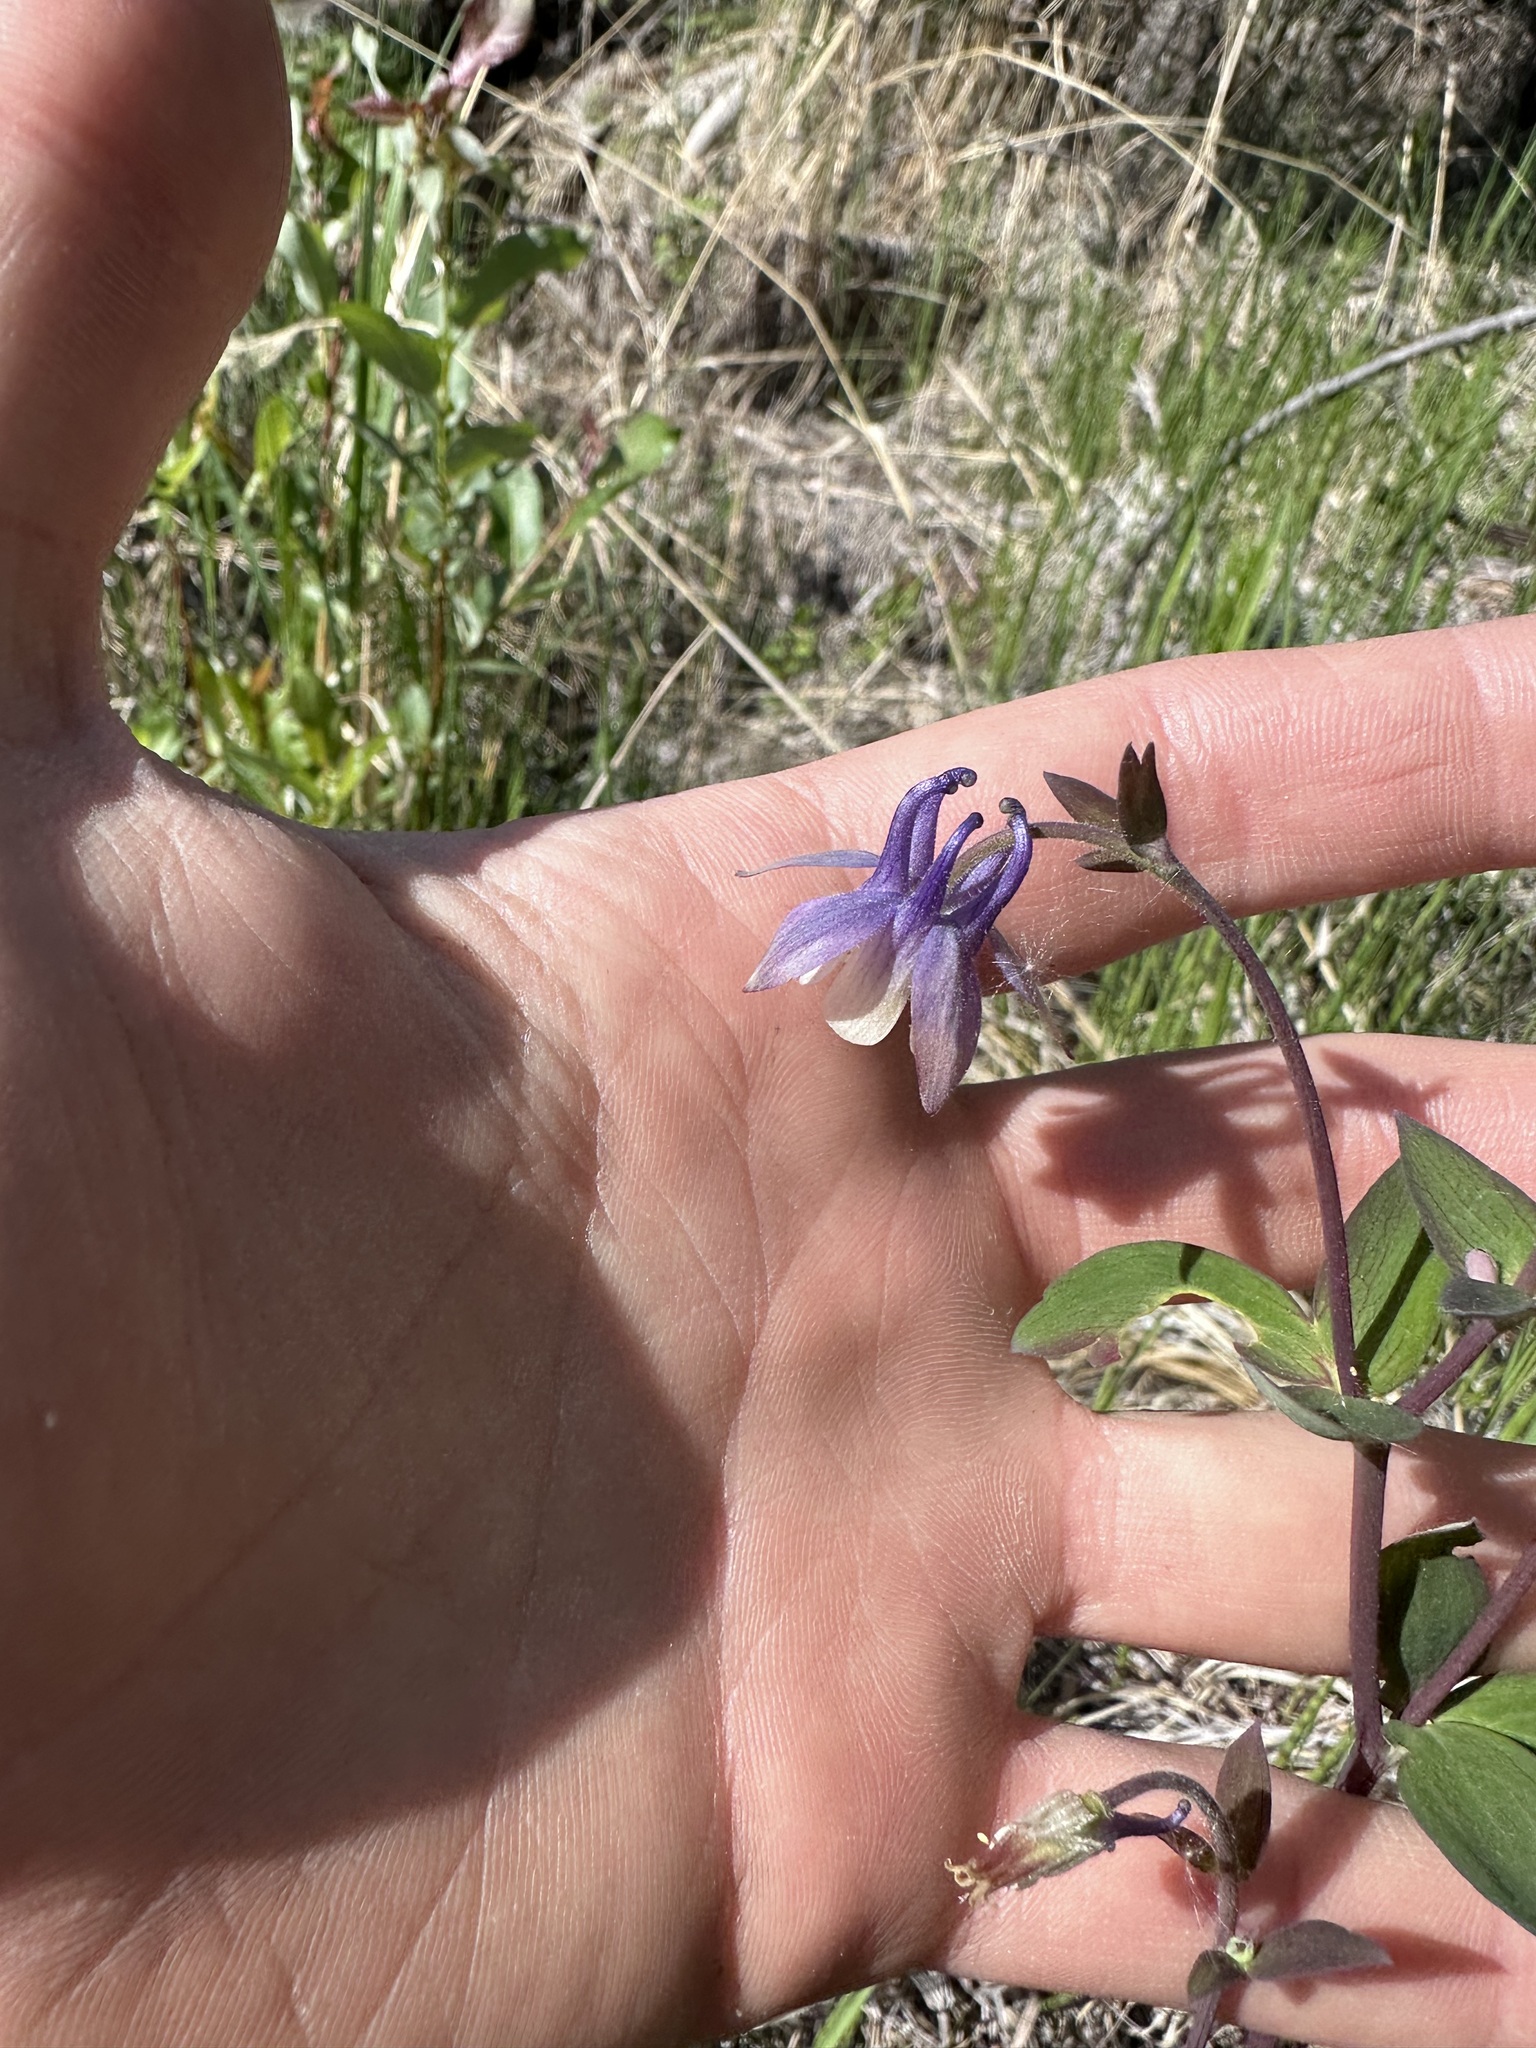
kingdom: Plantae
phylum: Tracheophyta
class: Magnoliopsida
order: Ranunculales
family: Ranunculaceae
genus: Aquilegia
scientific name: Aquilegia brevistyla
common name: Yukon columbine
